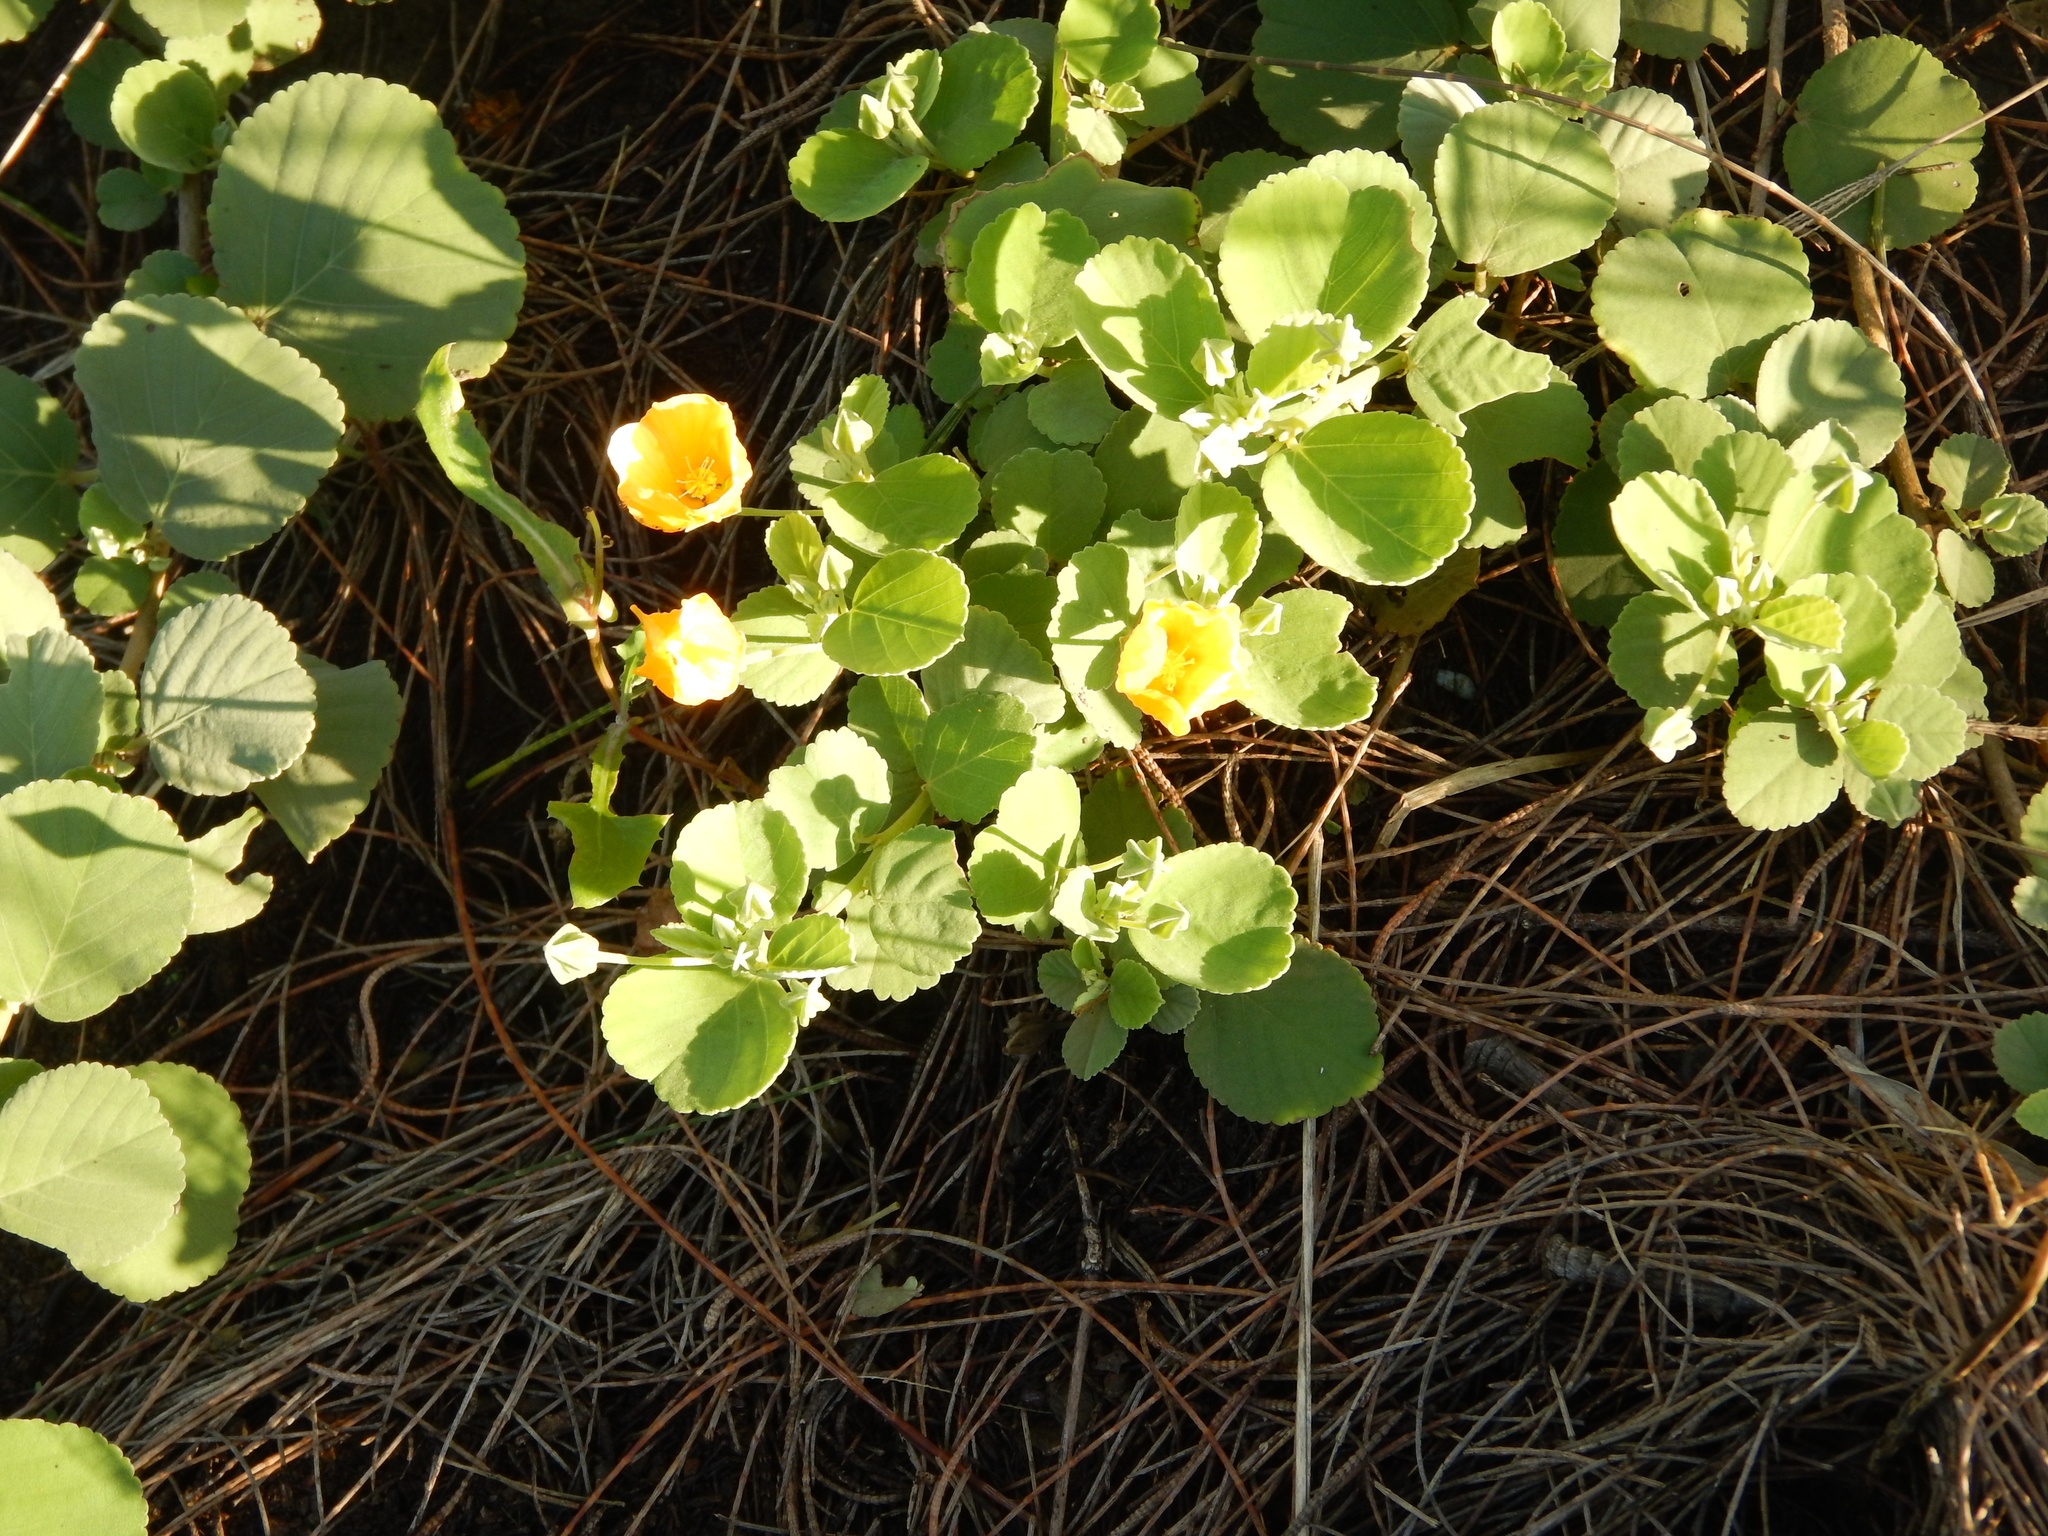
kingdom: Plantae
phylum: Tracheophyta
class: Magnoliopsida
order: Malvales
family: Malvaceae
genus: Sida
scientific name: Sida fallax
